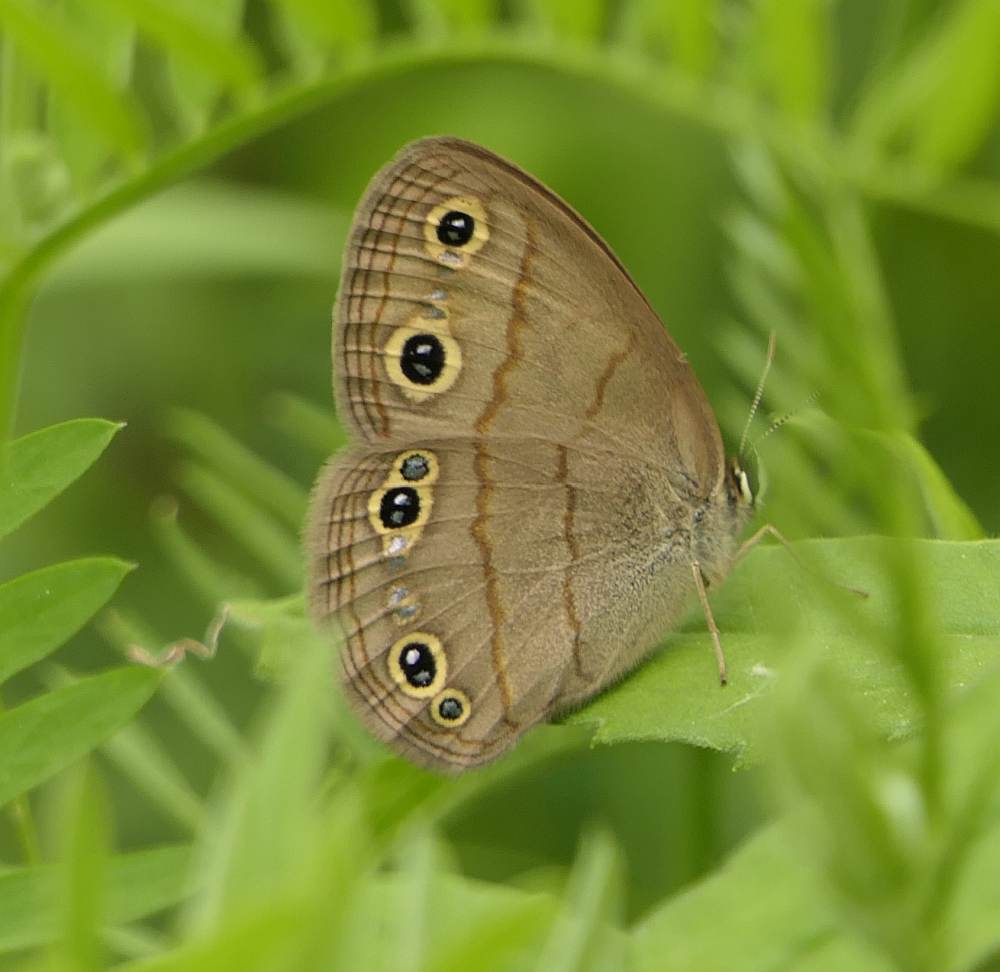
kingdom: Animalia
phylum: Arthropoda
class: Insecta
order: Lepidoptera
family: Nymphalidae
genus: Euptychia
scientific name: Euptychia cymela
